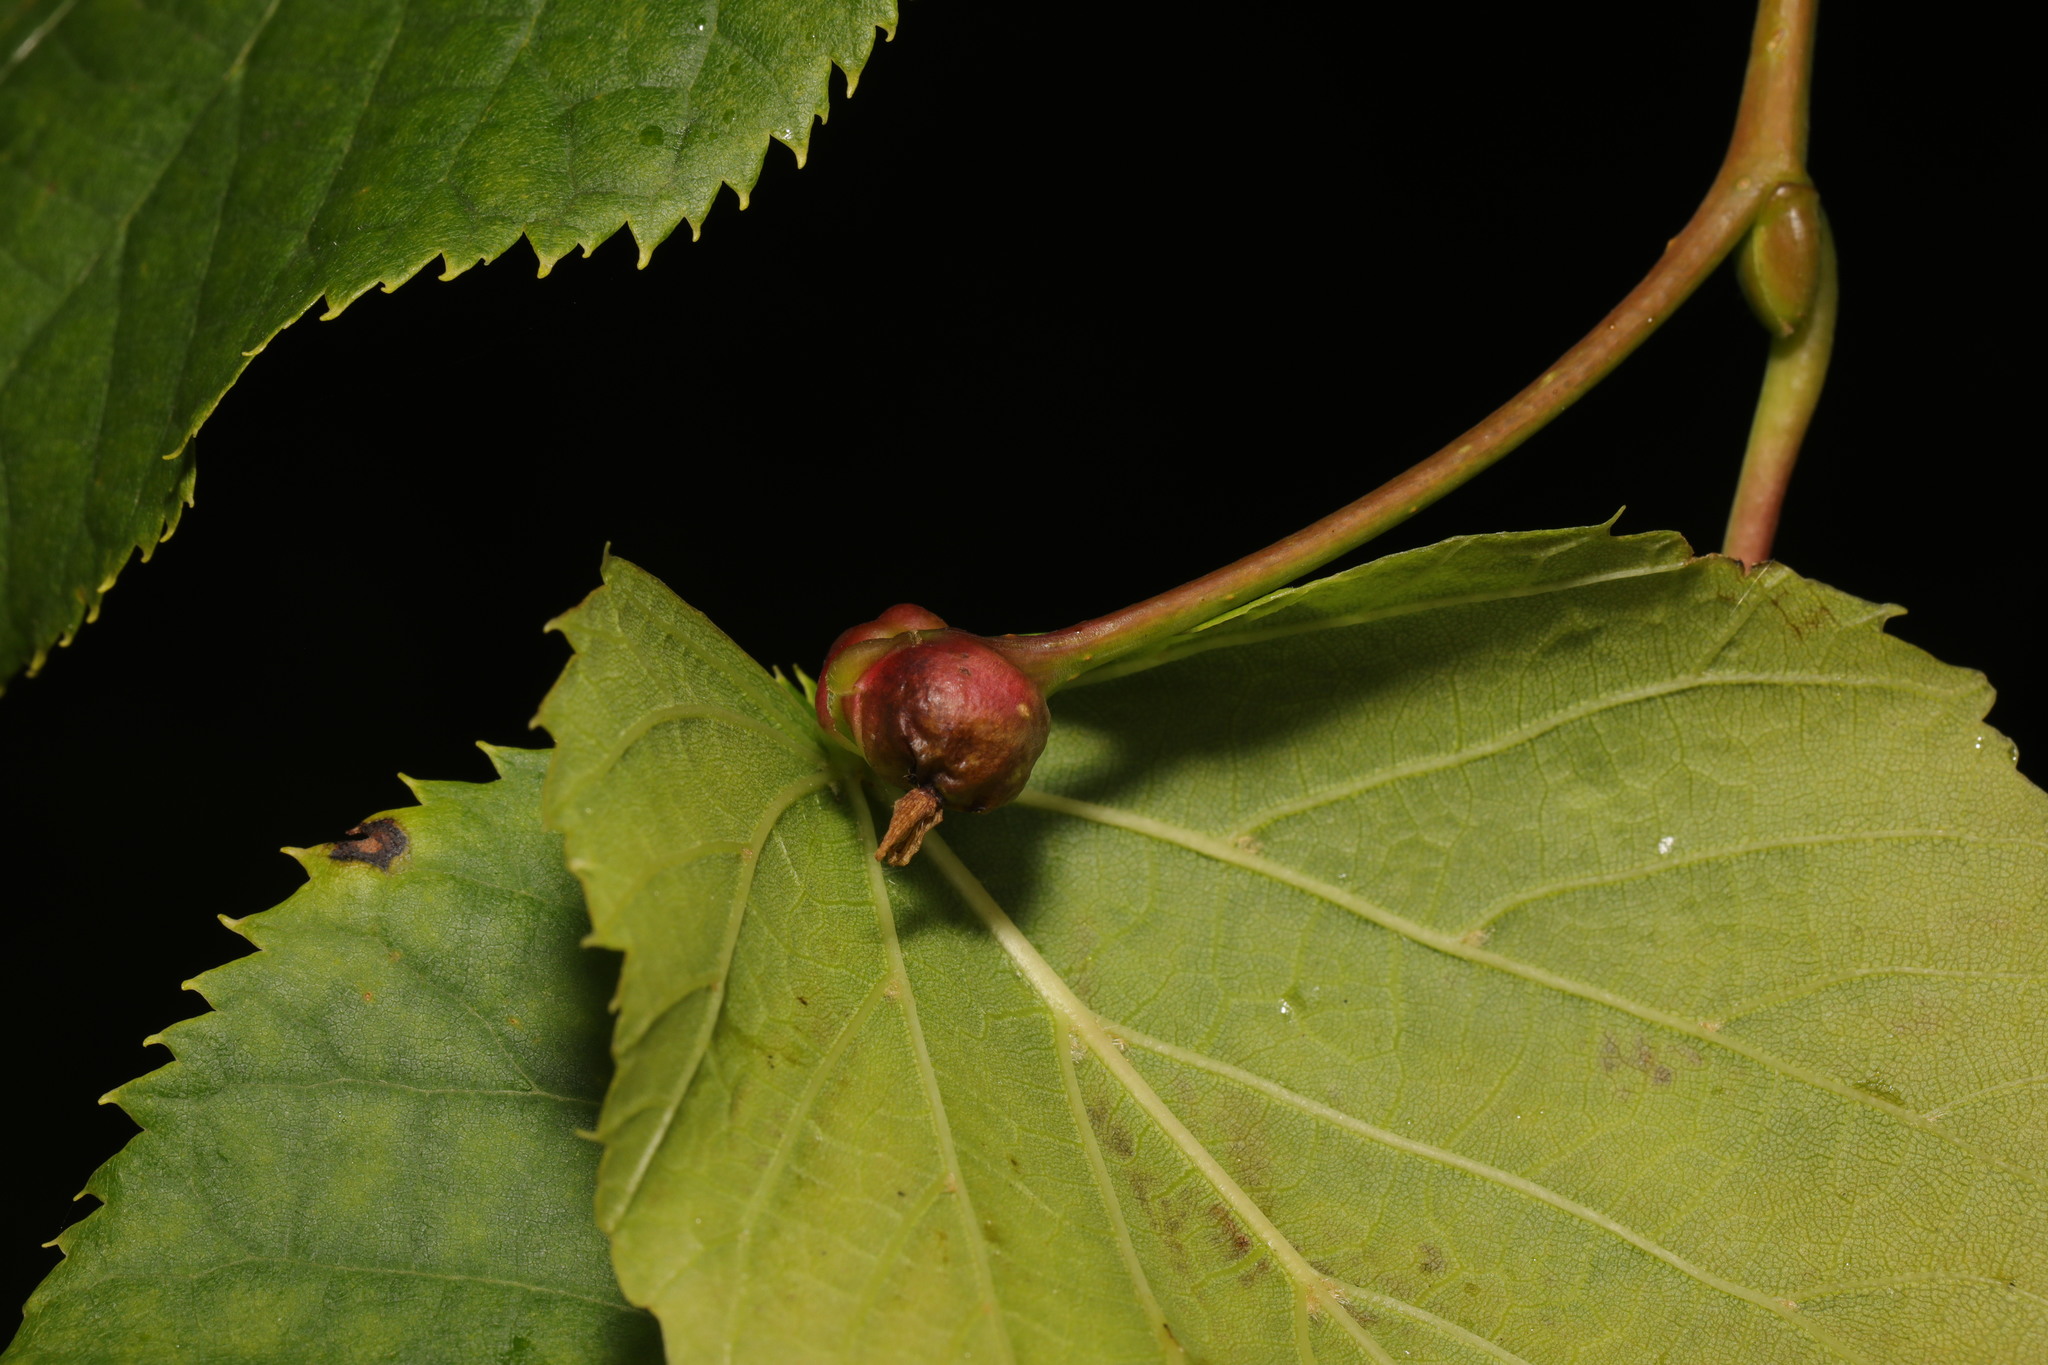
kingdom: Animalia
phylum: Arthropoda
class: Insecta
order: Diptera
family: Cecidomyiidae
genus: Contarinia
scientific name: Contarinia tiliarum
